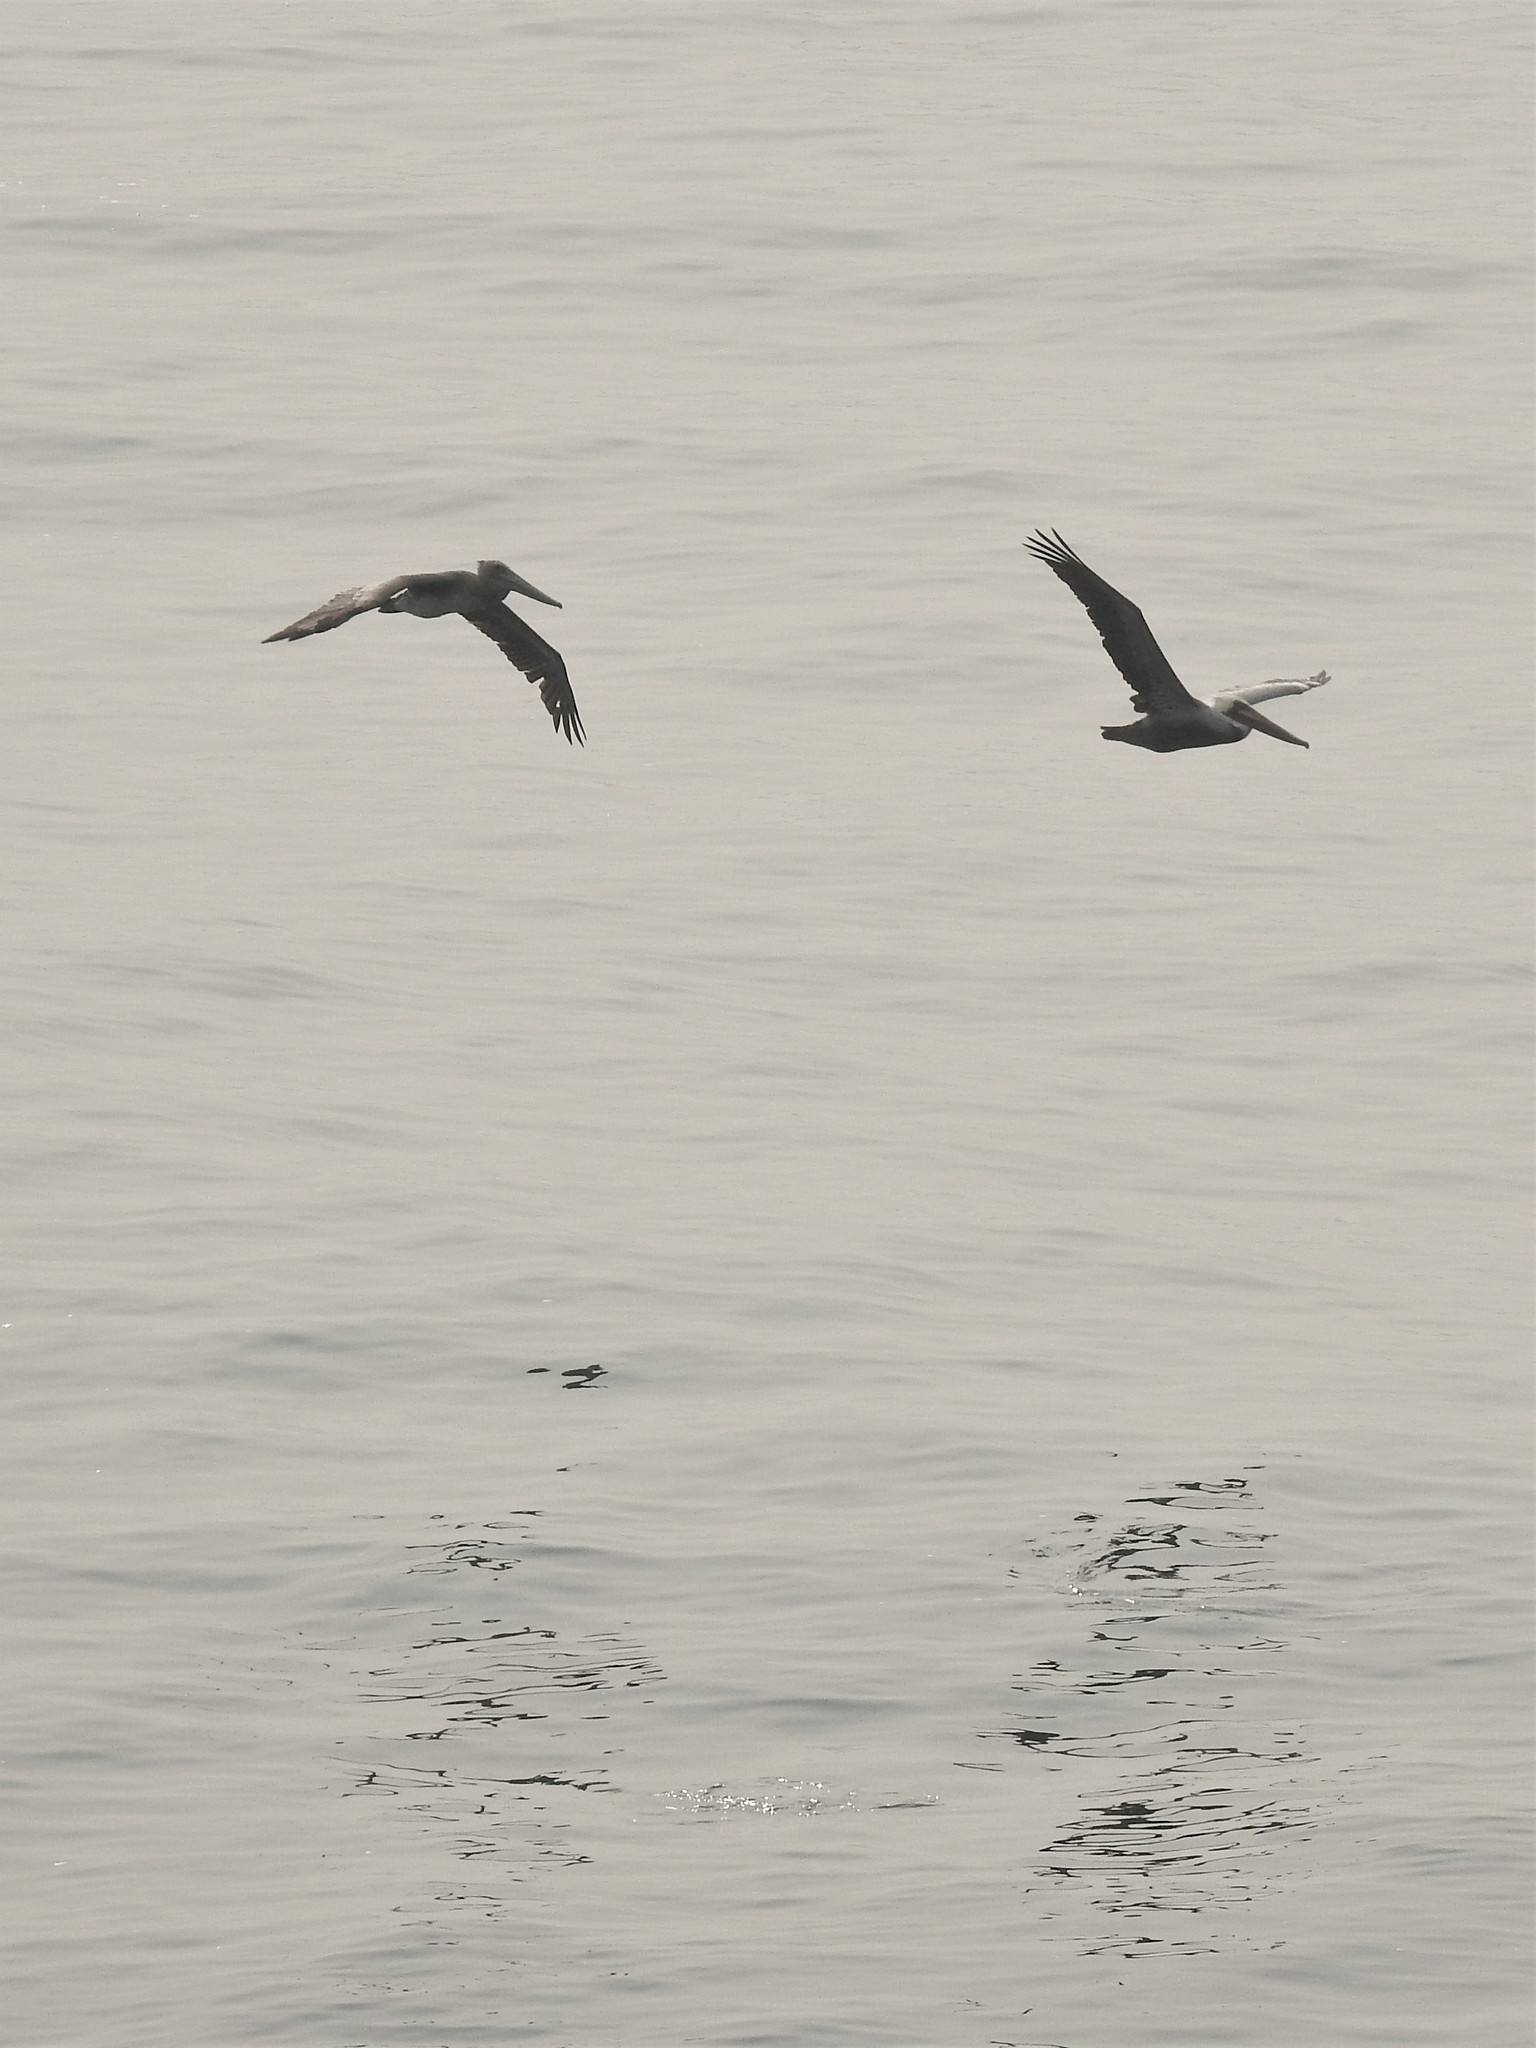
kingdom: Animalia
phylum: Chordata
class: Aves
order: Pelecaniformes
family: Pelecanidae
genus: Pelecanus
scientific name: Pelecanus occidentalis
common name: Brown pelican
